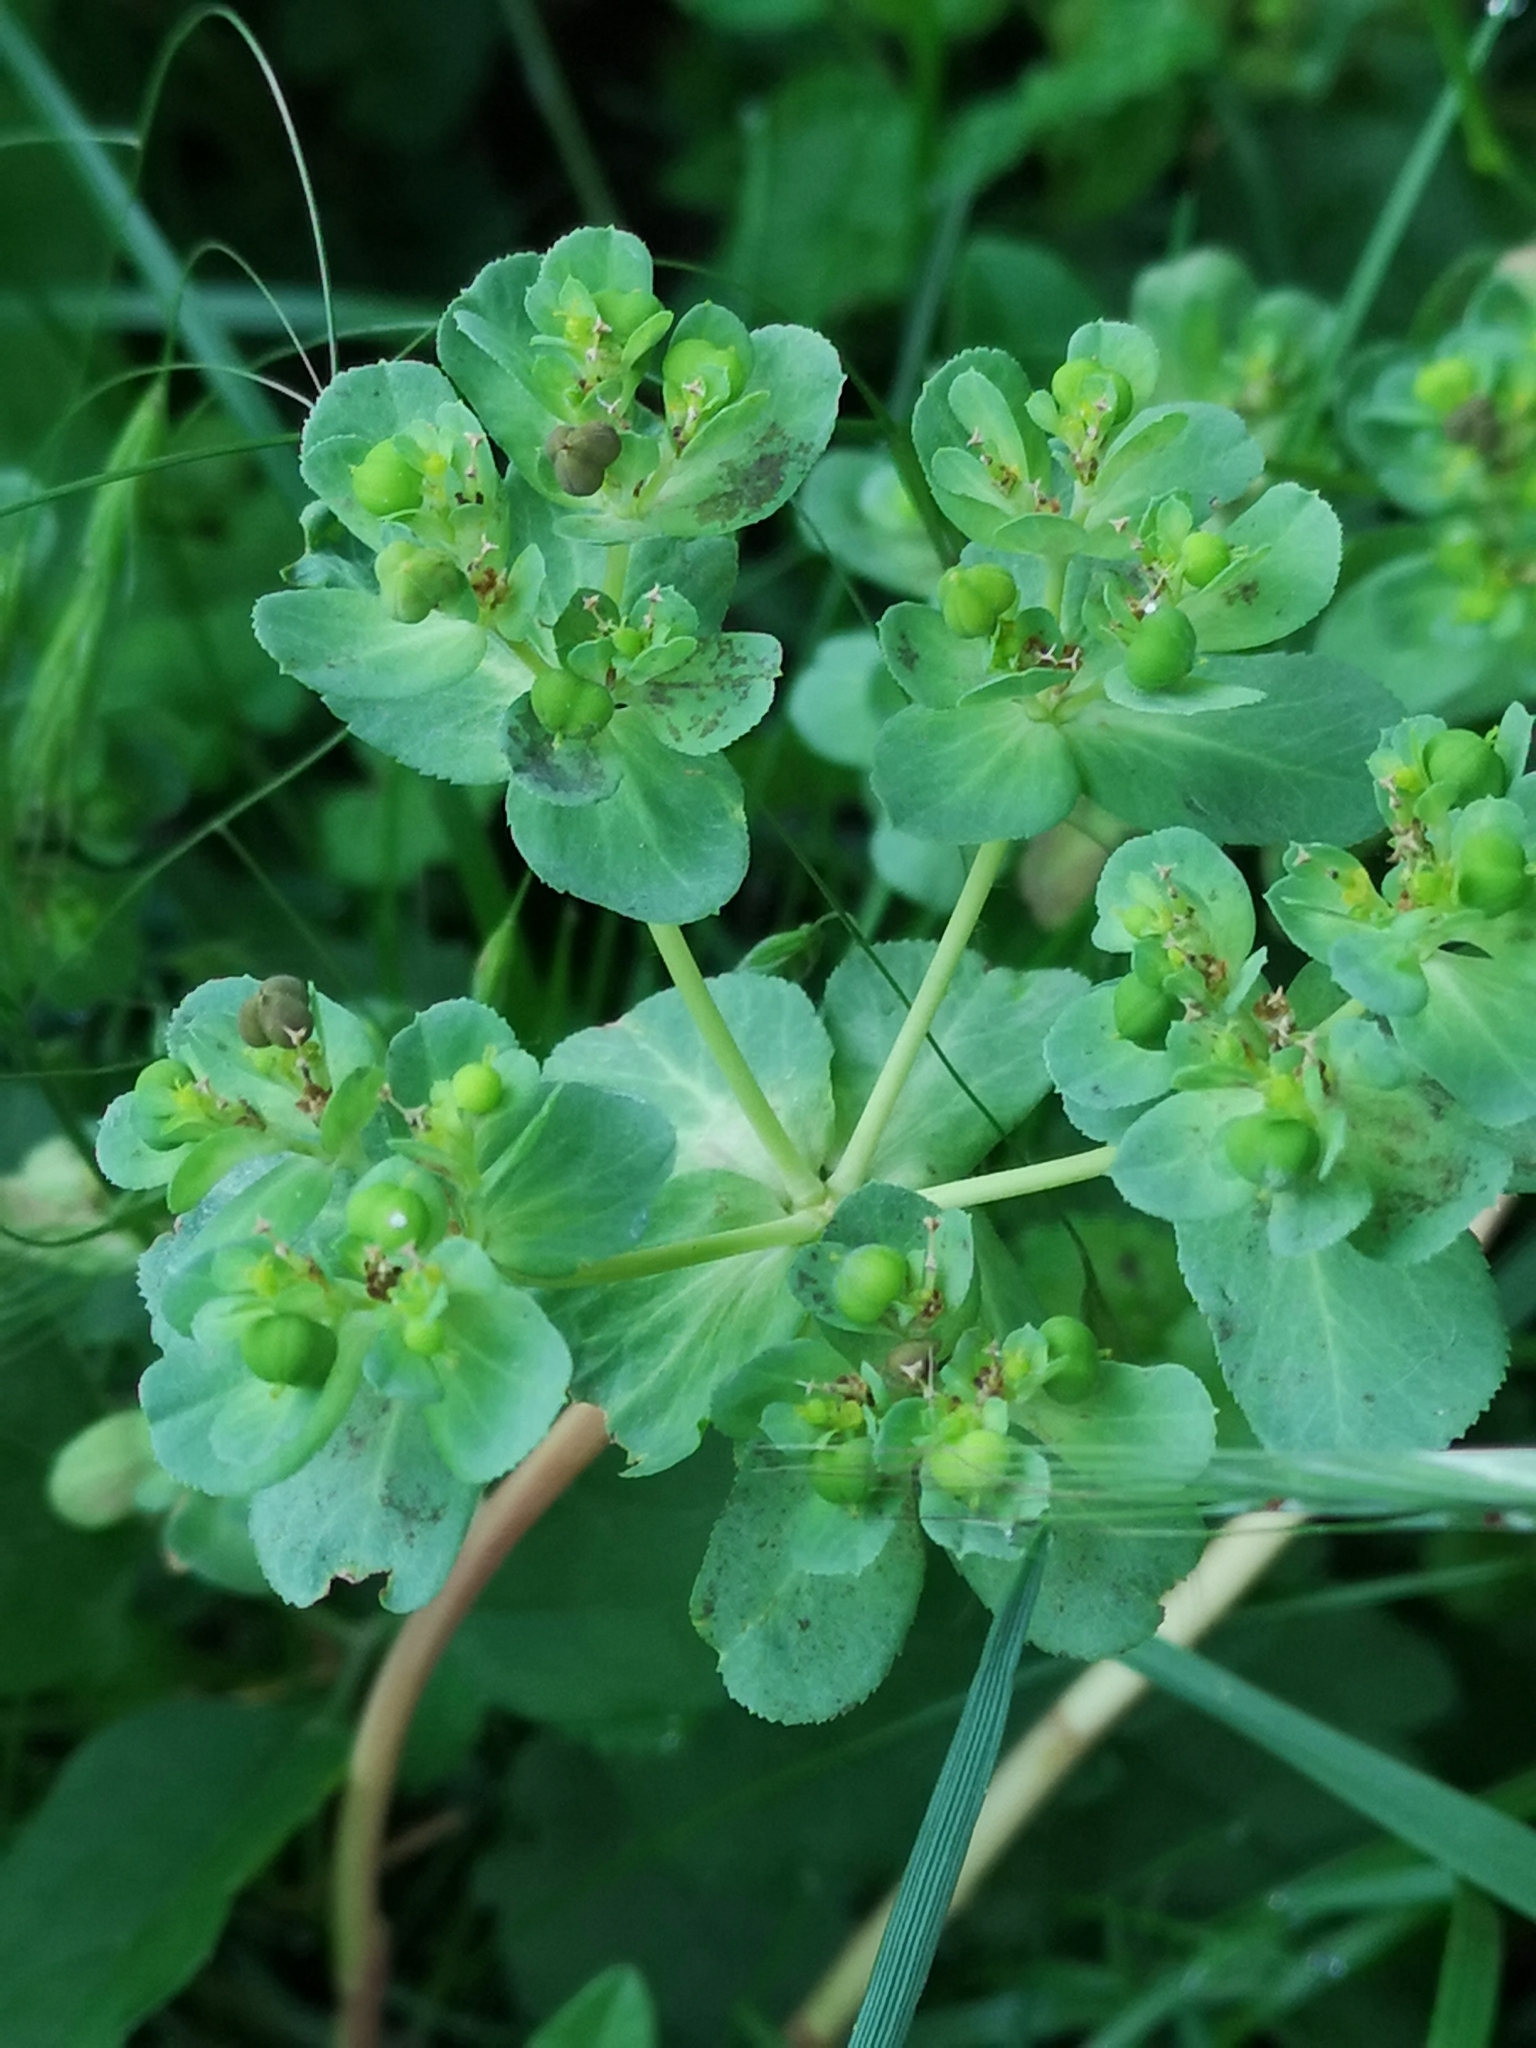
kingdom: Plantae
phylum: Tracheophyta
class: Magnoliopsida
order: Malpighiales
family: Euphorbiaceae
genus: Euphorbia
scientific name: Euphorbia helioscopia
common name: Sun spurge
